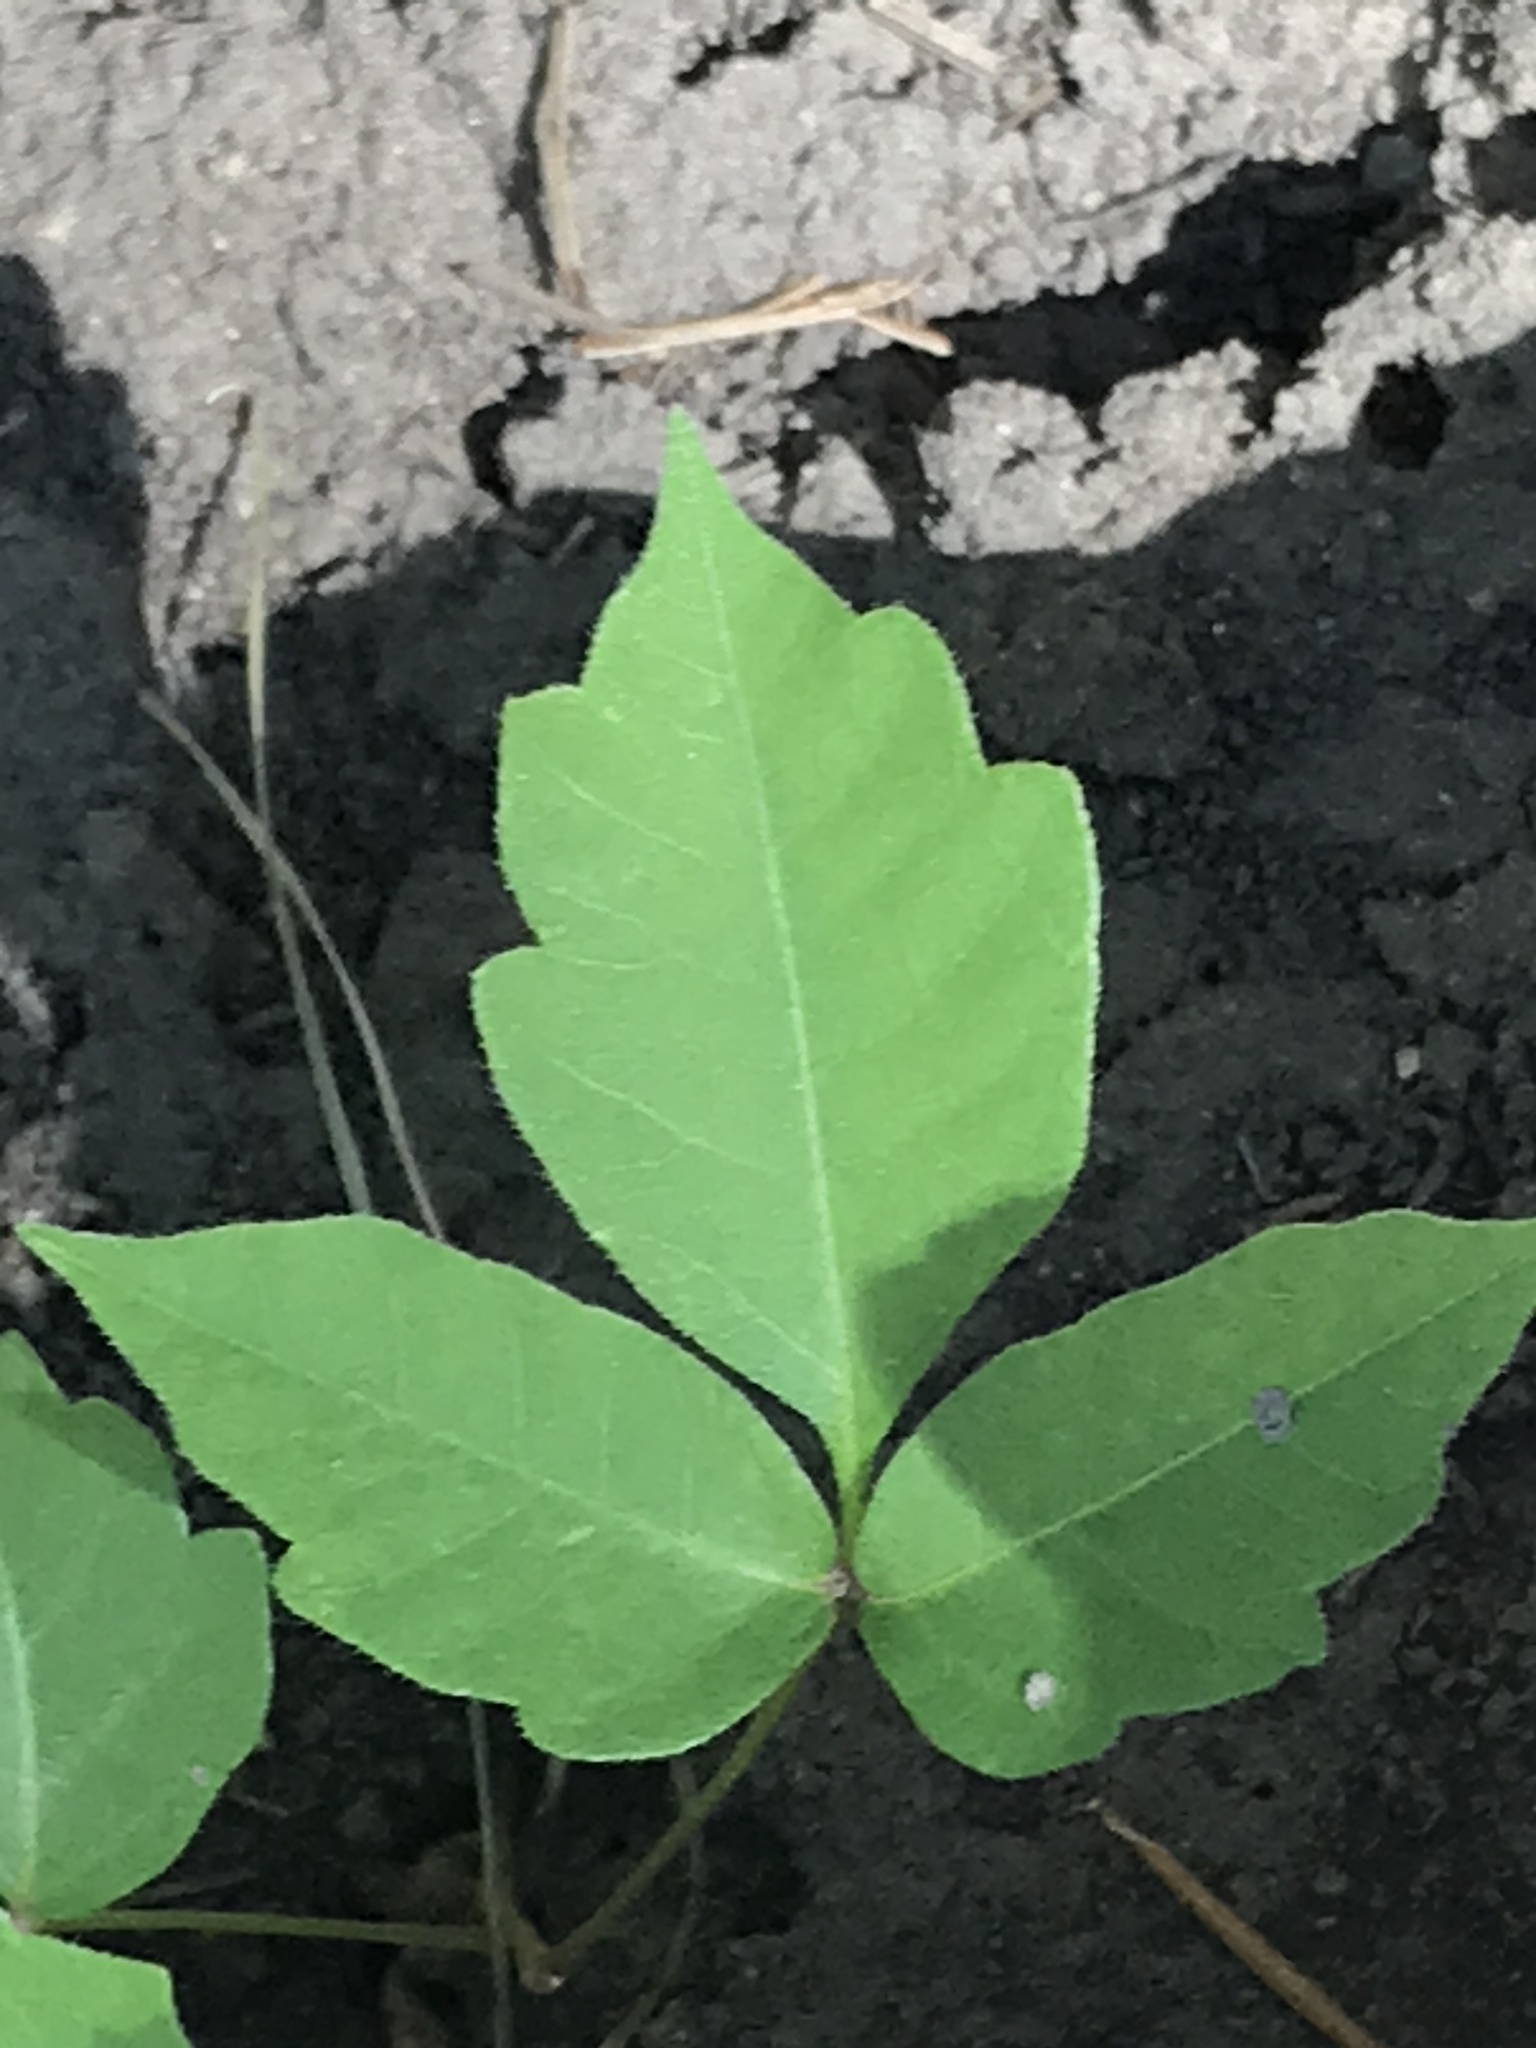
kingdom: Plantae
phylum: Tracheophyta
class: Magnoliopsida
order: Sapindales
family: Anacardiaceae
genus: Toxicodendron
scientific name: Toxicodendron rydbergii
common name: Rydberg's poison-ivy
